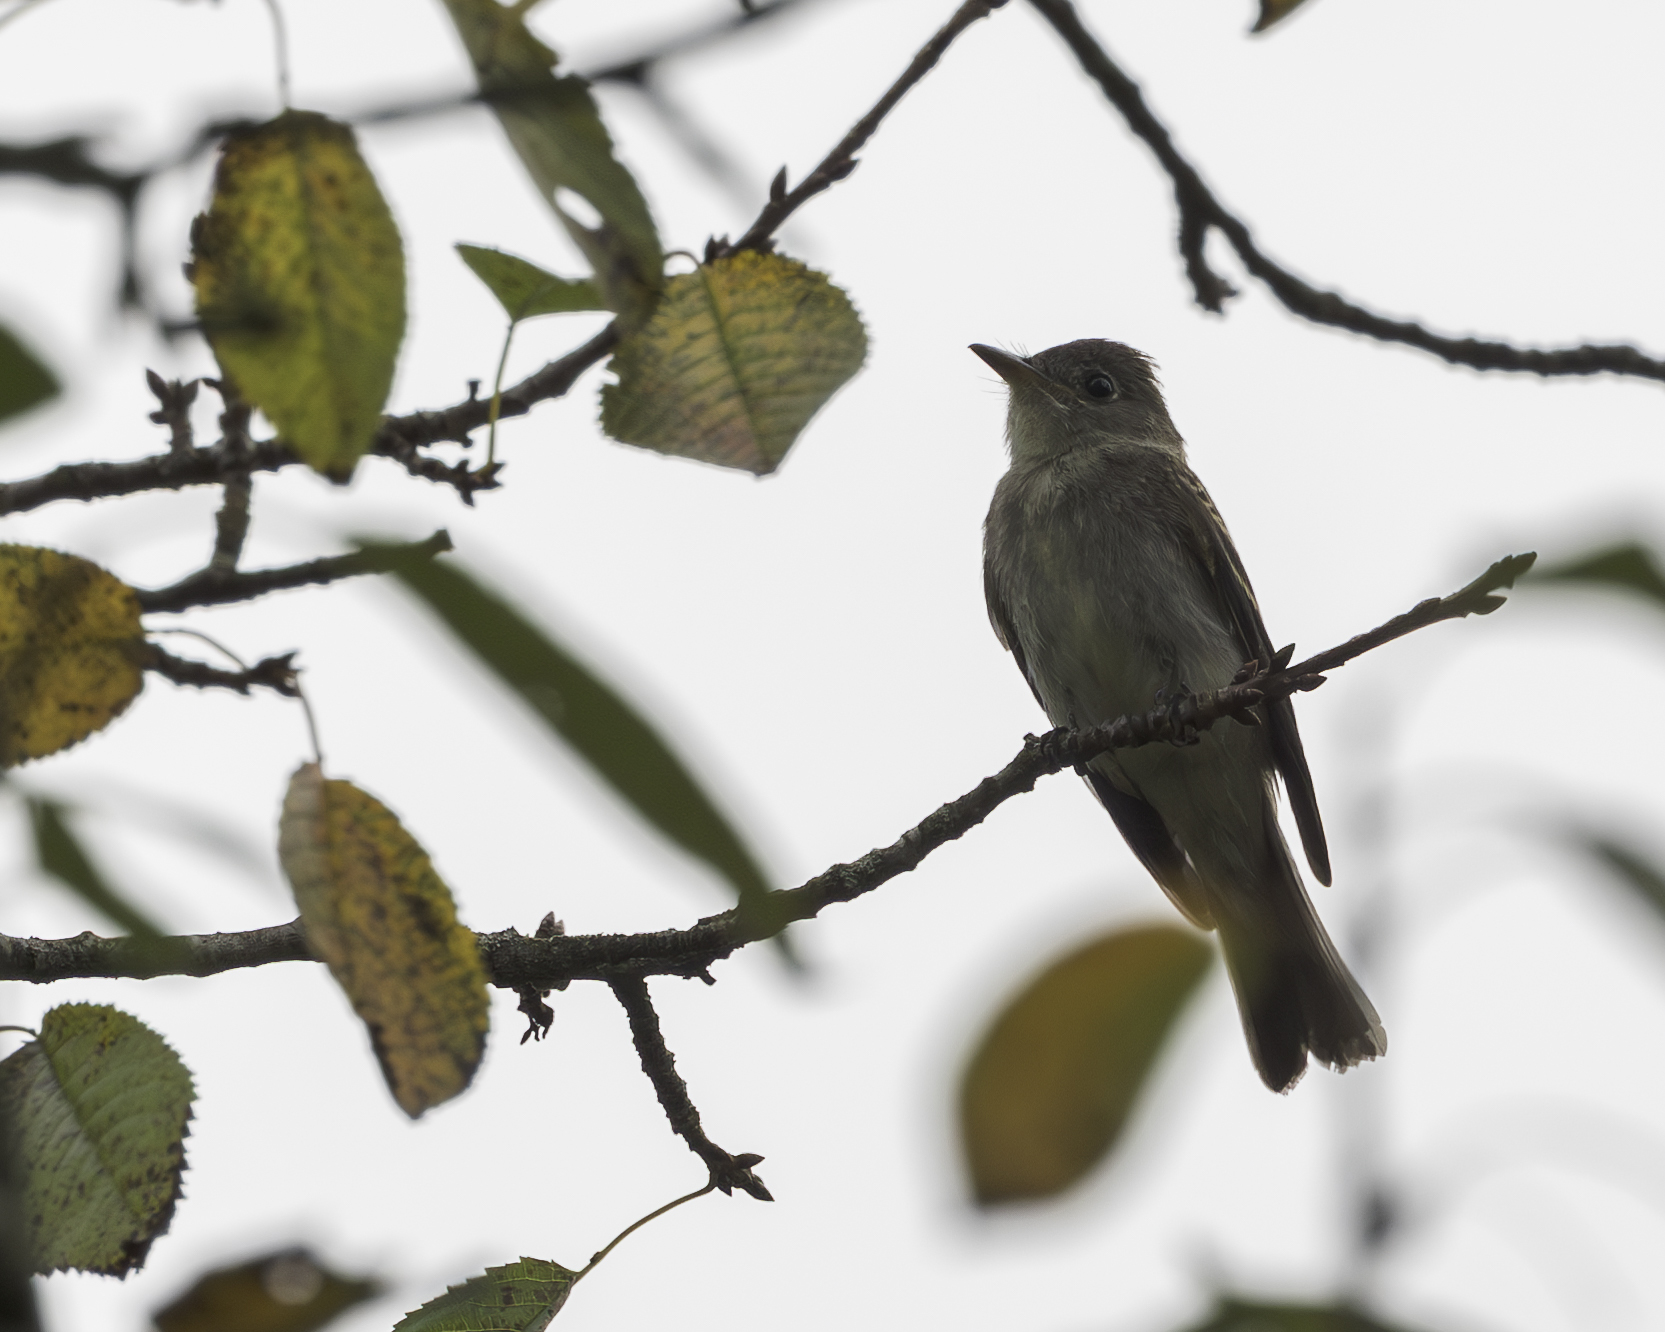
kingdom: Animalia
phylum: Chordata
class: Aves
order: Passeriformes
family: Tyrannidae
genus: Contopus
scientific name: Contopus virens
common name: Eastern wood-pewee
